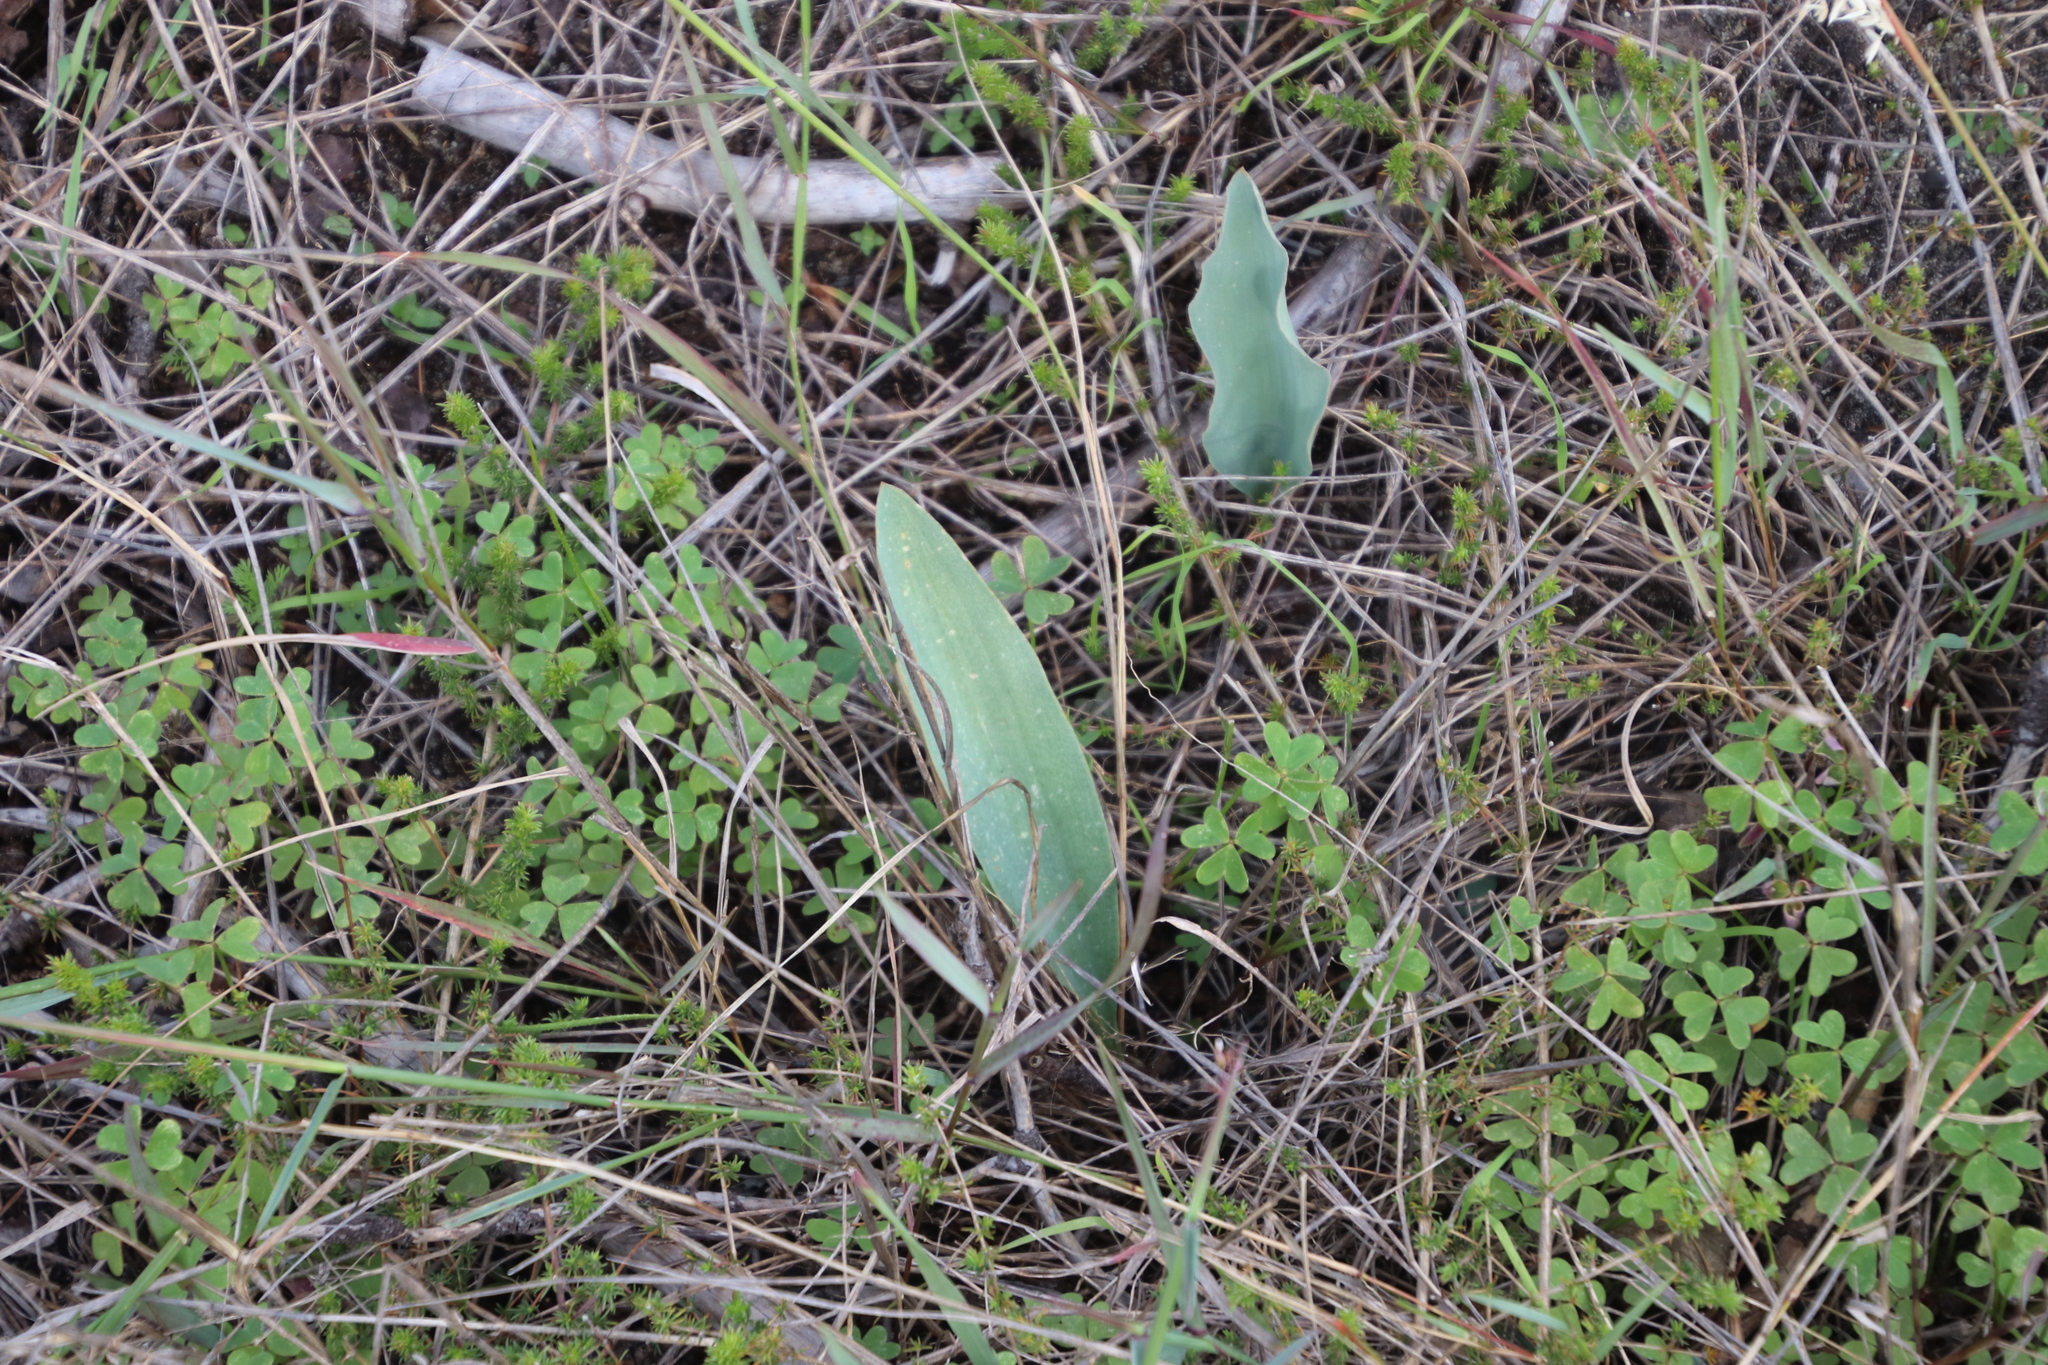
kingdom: Plantae
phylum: Tracheophyta
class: Liliopsida
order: Asparagales
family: Asparagaceae
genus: Eriospermum
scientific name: Eriospermum lanceifolium
